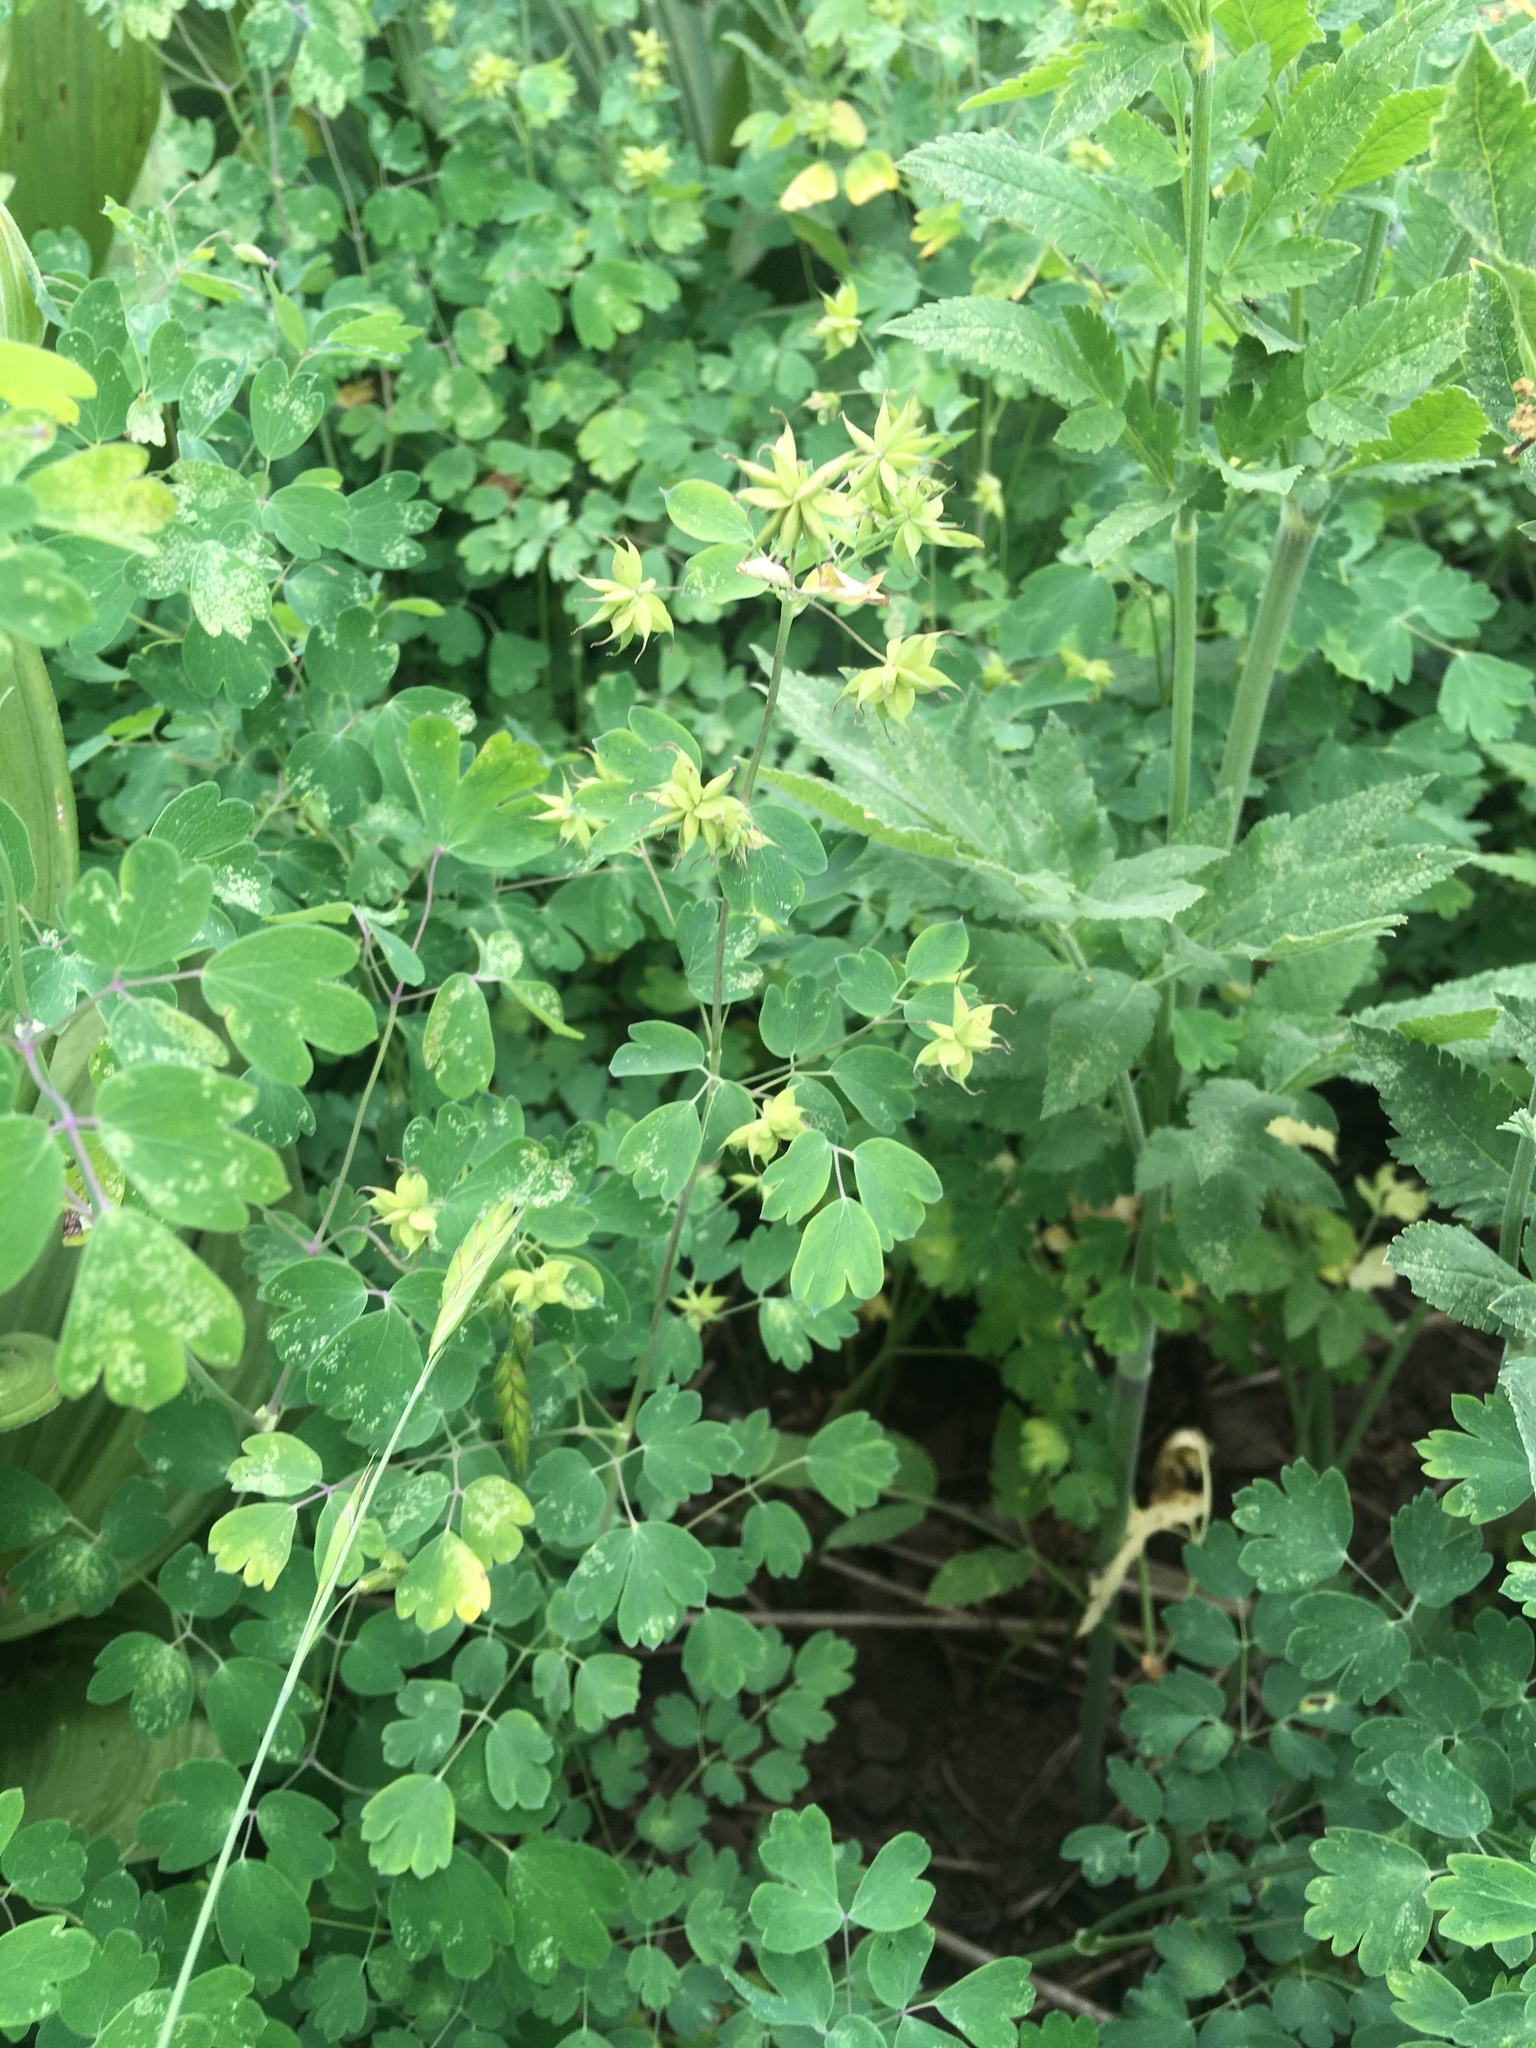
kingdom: Plantae
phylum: Tracheophyta
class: Magnoliopsida
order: Ranunculales
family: Ranunculaceae
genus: Thalictrum
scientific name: Thalictrum fendleri
